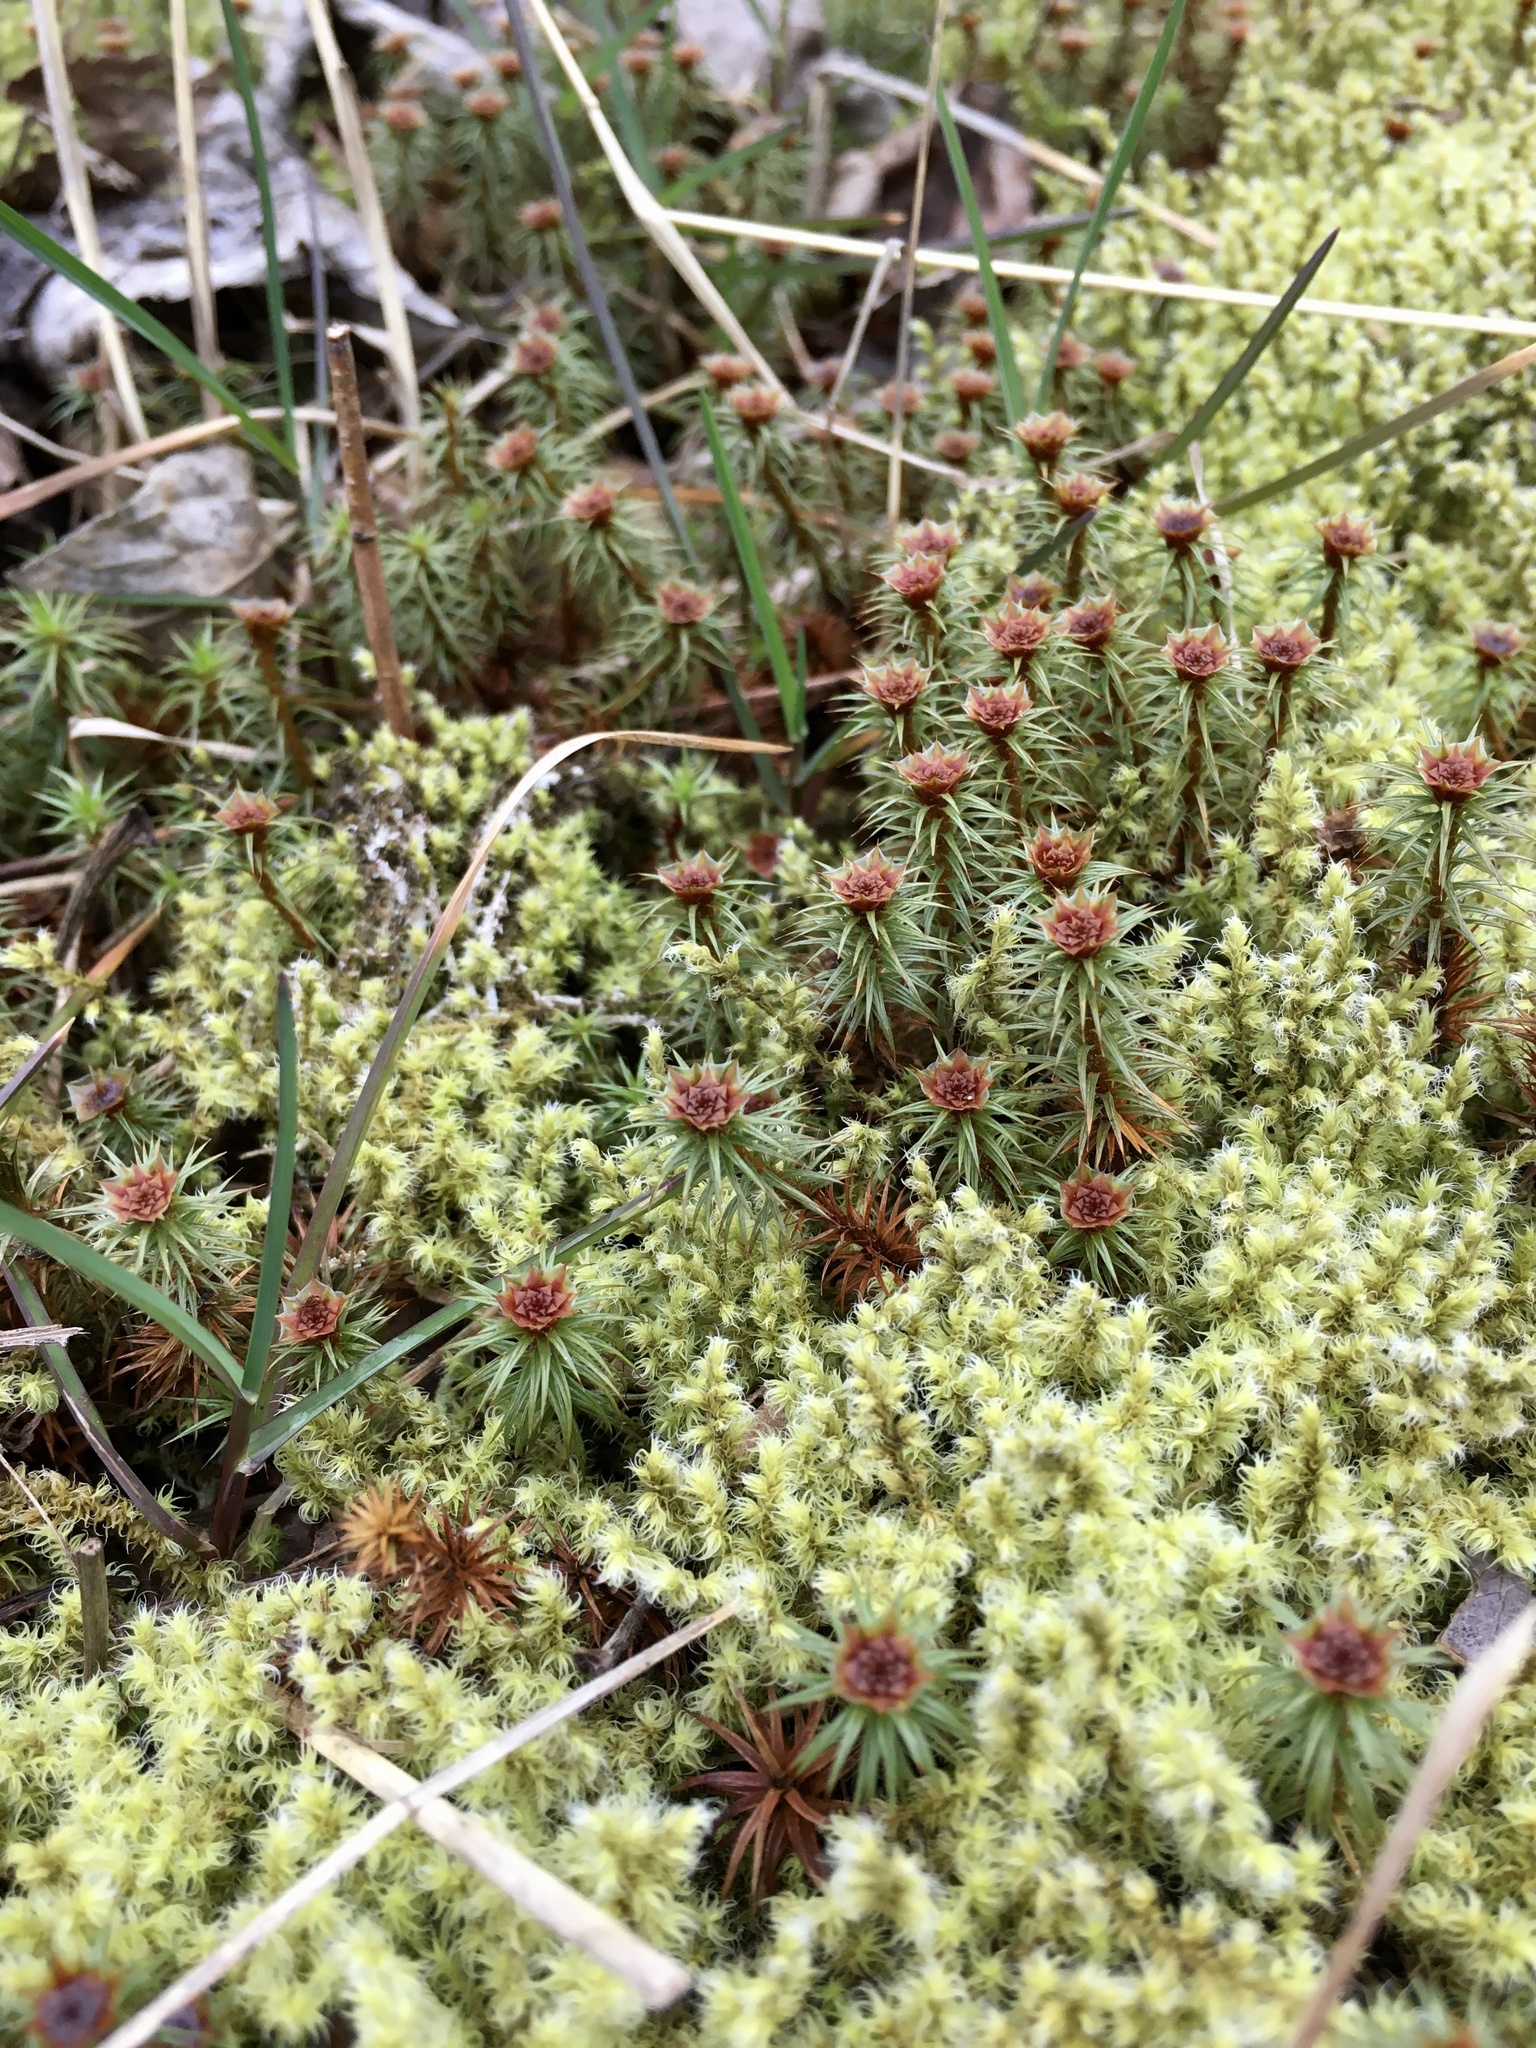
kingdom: Plantae
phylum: Bryophyta
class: Polytrichopsida
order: Polytrichales
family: Polytrichaceae
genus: Polytrichum
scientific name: Polytrichum juniperinum
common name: Juniper haircap moss
